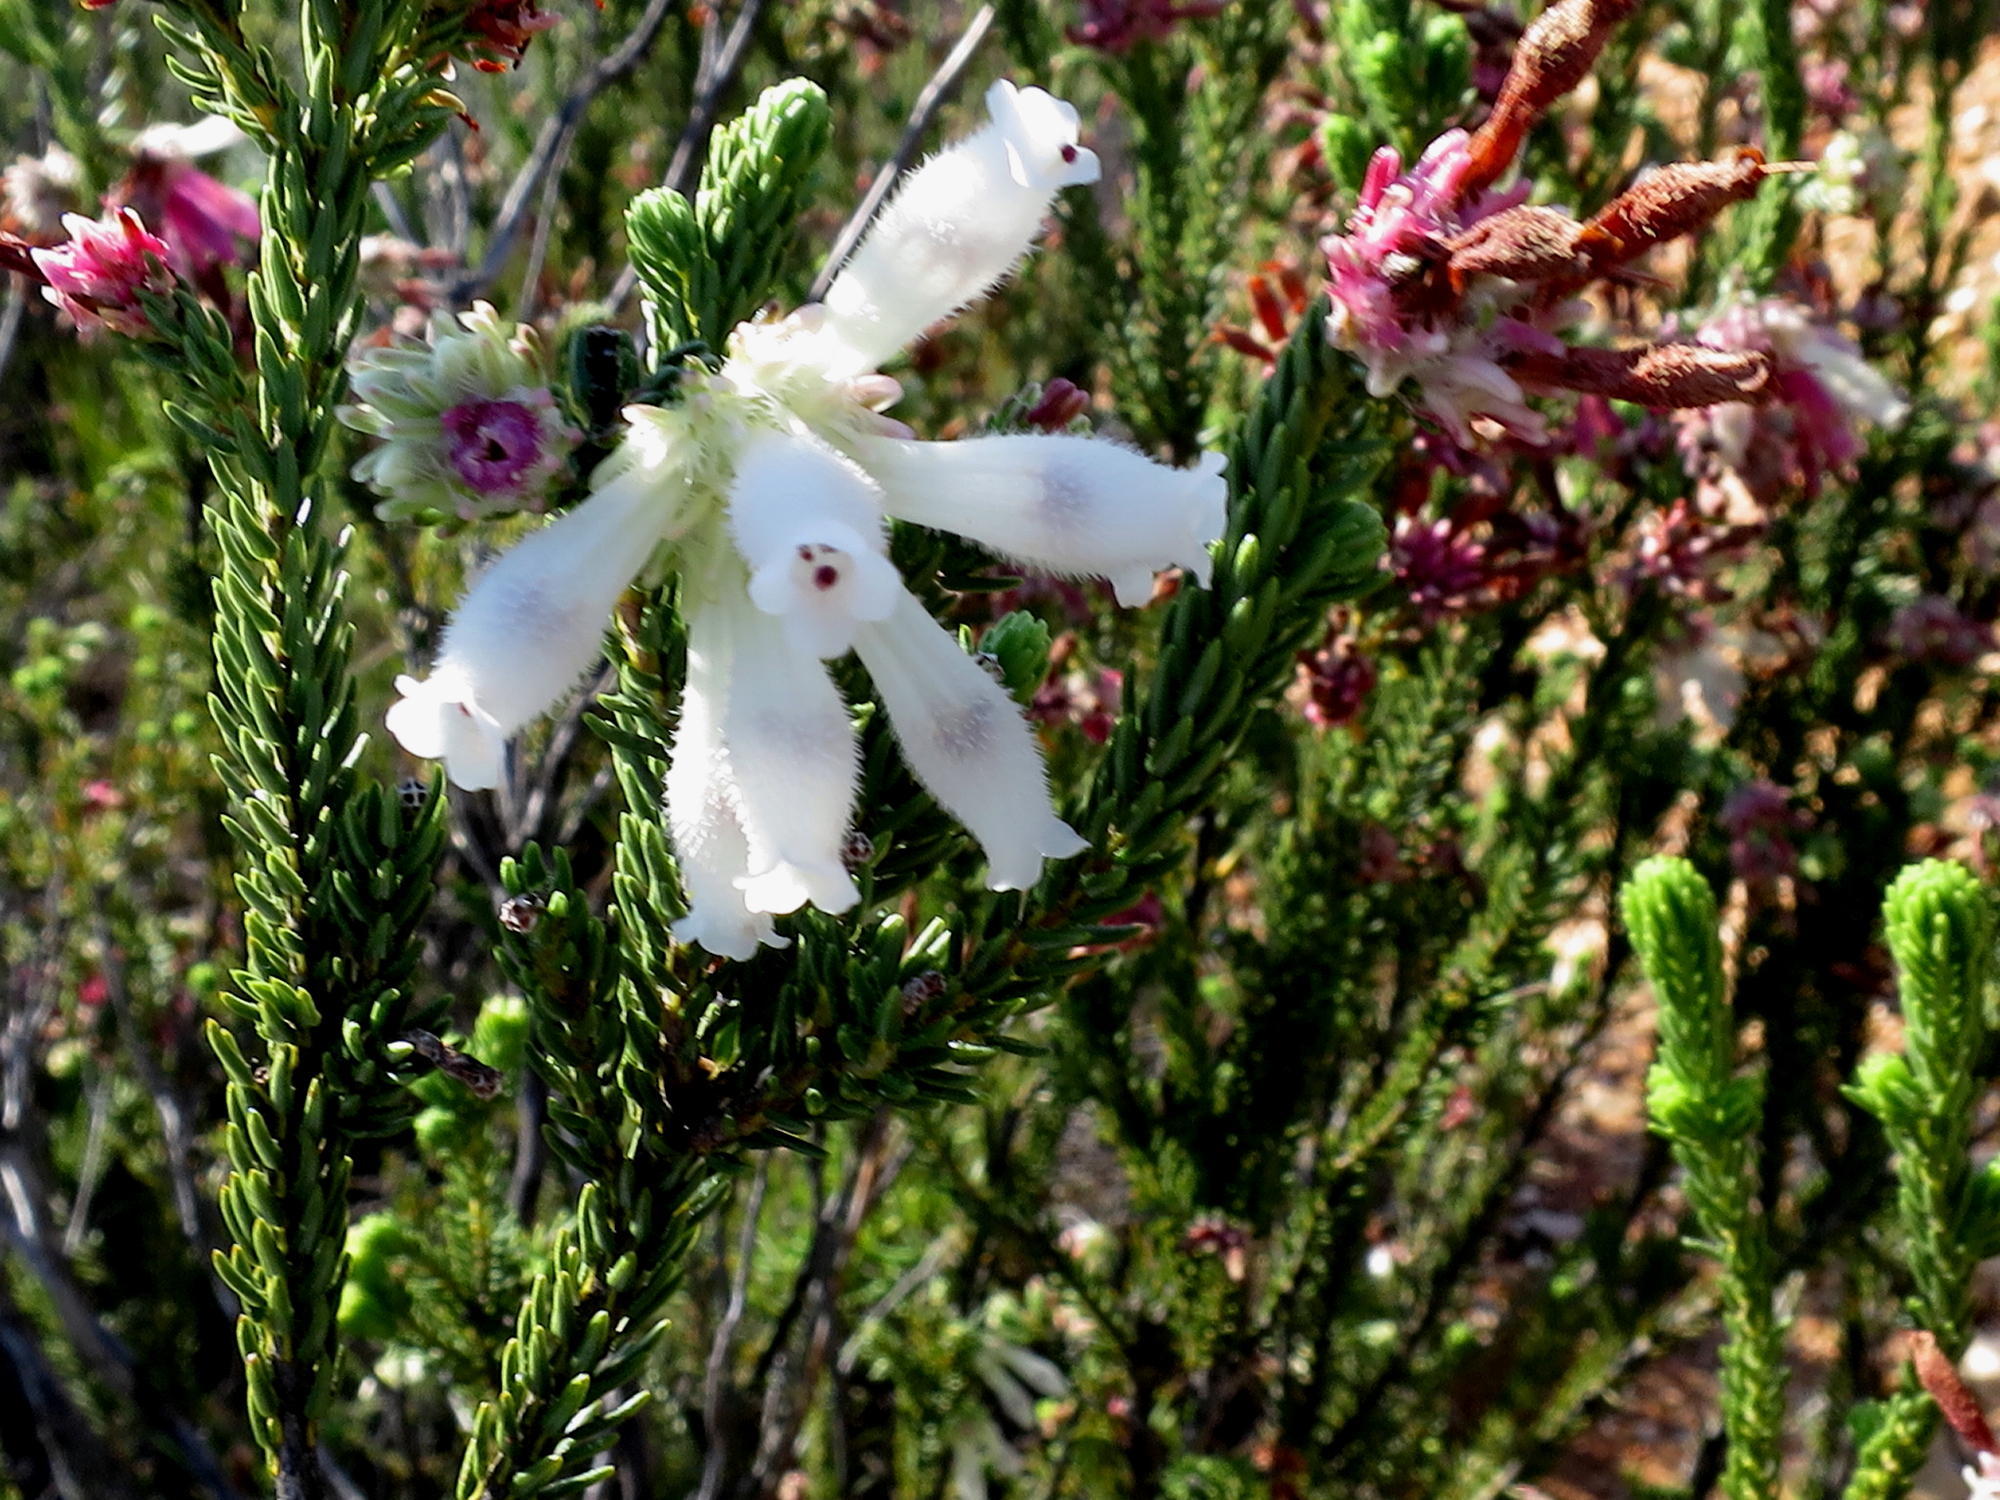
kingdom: Plantae
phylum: Tracheophyta
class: Magnoliopsida
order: Ericales
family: Ericaceae
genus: Erica
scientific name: Erica pectinifolia
